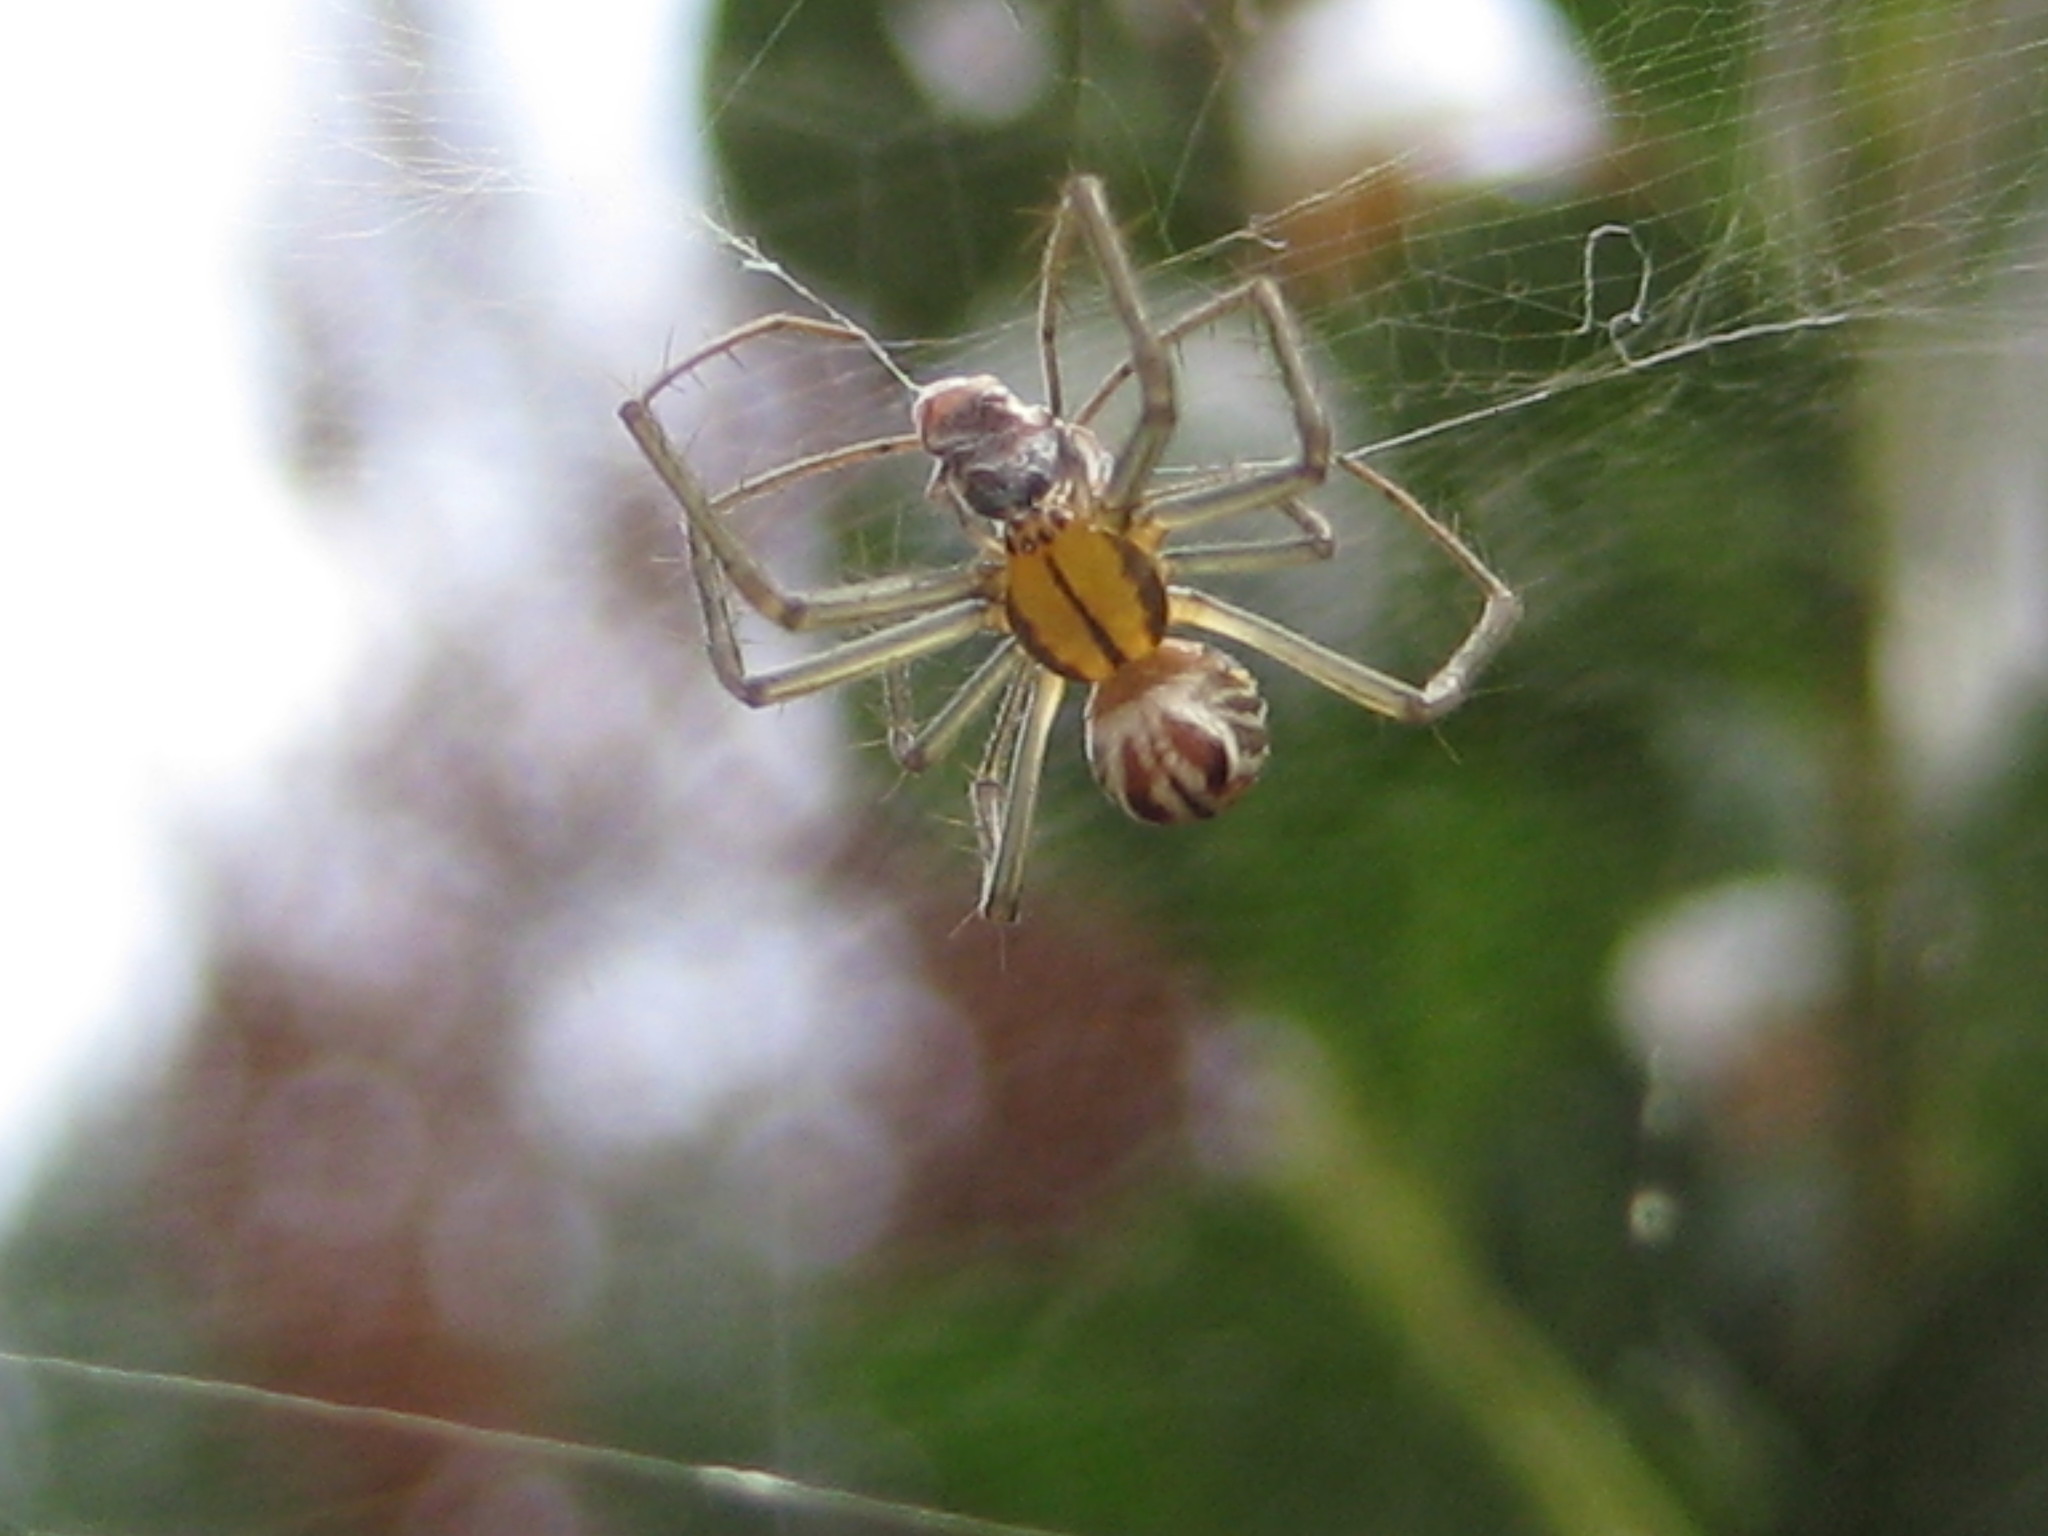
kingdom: Animalia
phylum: Arthropoda
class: Arachnida
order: Araneae
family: Araneidae
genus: Mecynogea
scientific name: Mecynogea lemniscata
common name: Orb weavers
